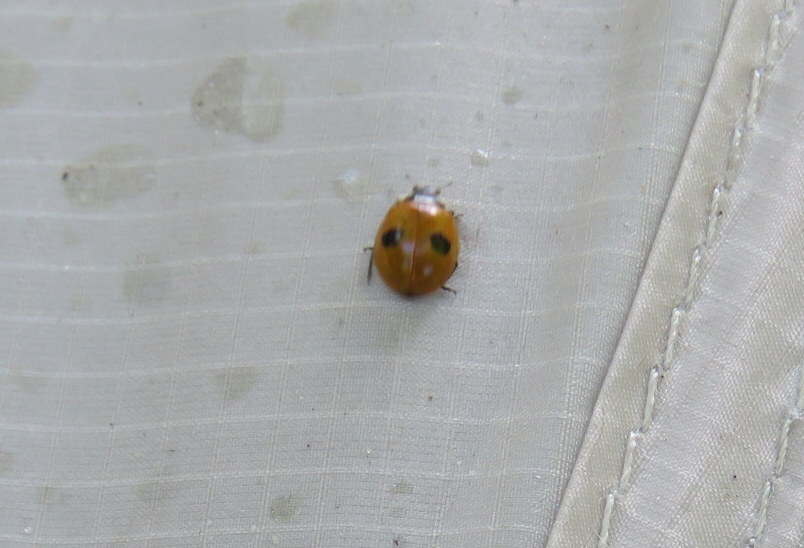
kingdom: Animalia
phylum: Arthropoda
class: Insecta
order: Coleoptera
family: Coccinellidae
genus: Adalia
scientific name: Adalia bipunctata
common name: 2-spot ladybird
